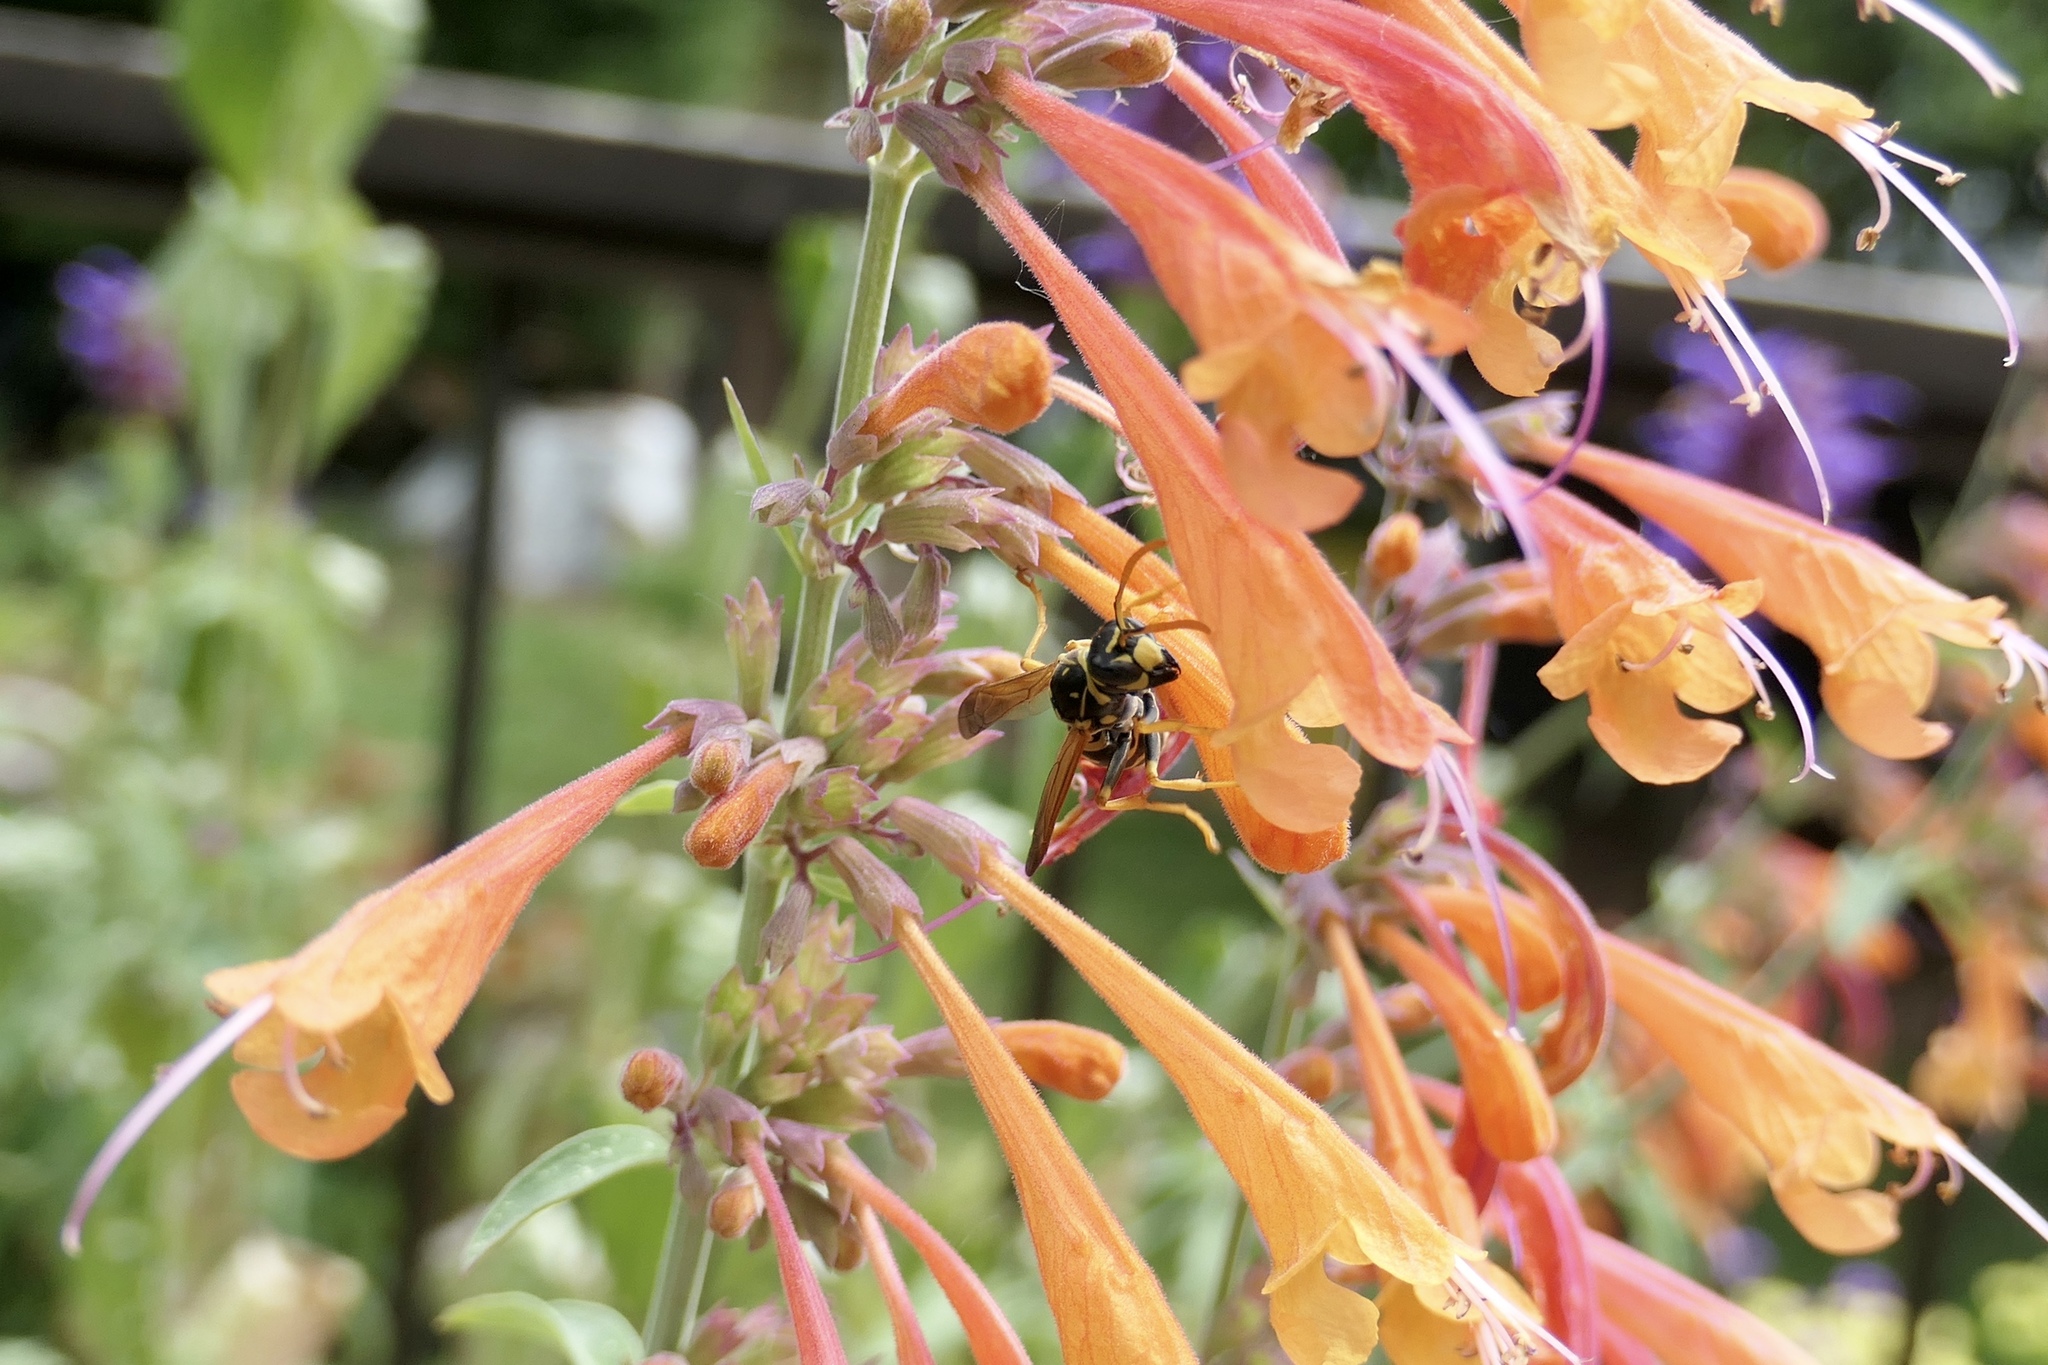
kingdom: Animalia
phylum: Arthropoda
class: Insecta
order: Hymenoptera
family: Eumenidae
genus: Polistes
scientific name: Polistes dominula
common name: Paper wasp
